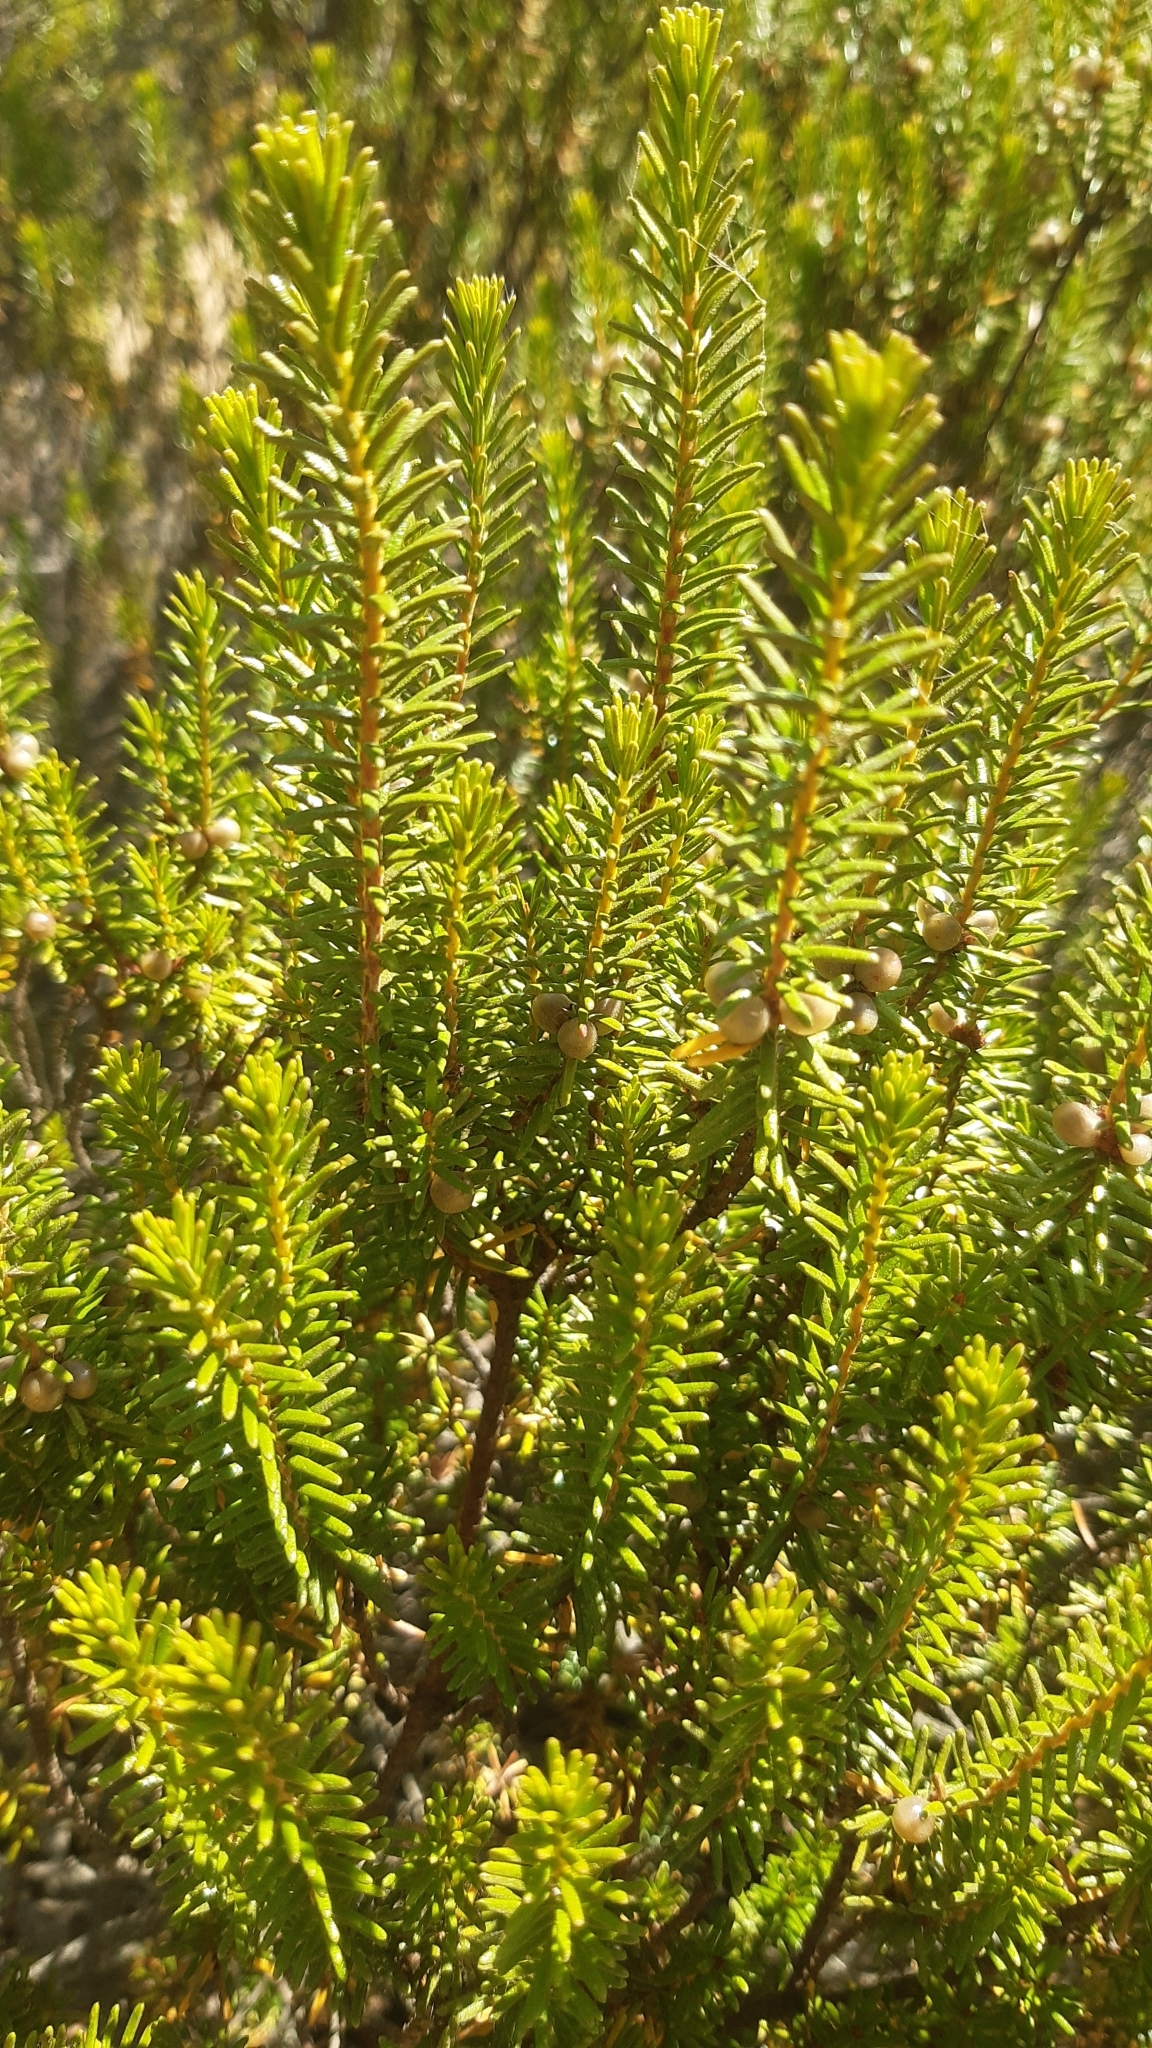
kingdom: Plantae
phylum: Tracheophyta
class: Magnoliopsida
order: Ericales
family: Ericaceae
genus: Corema
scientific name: Corema album
